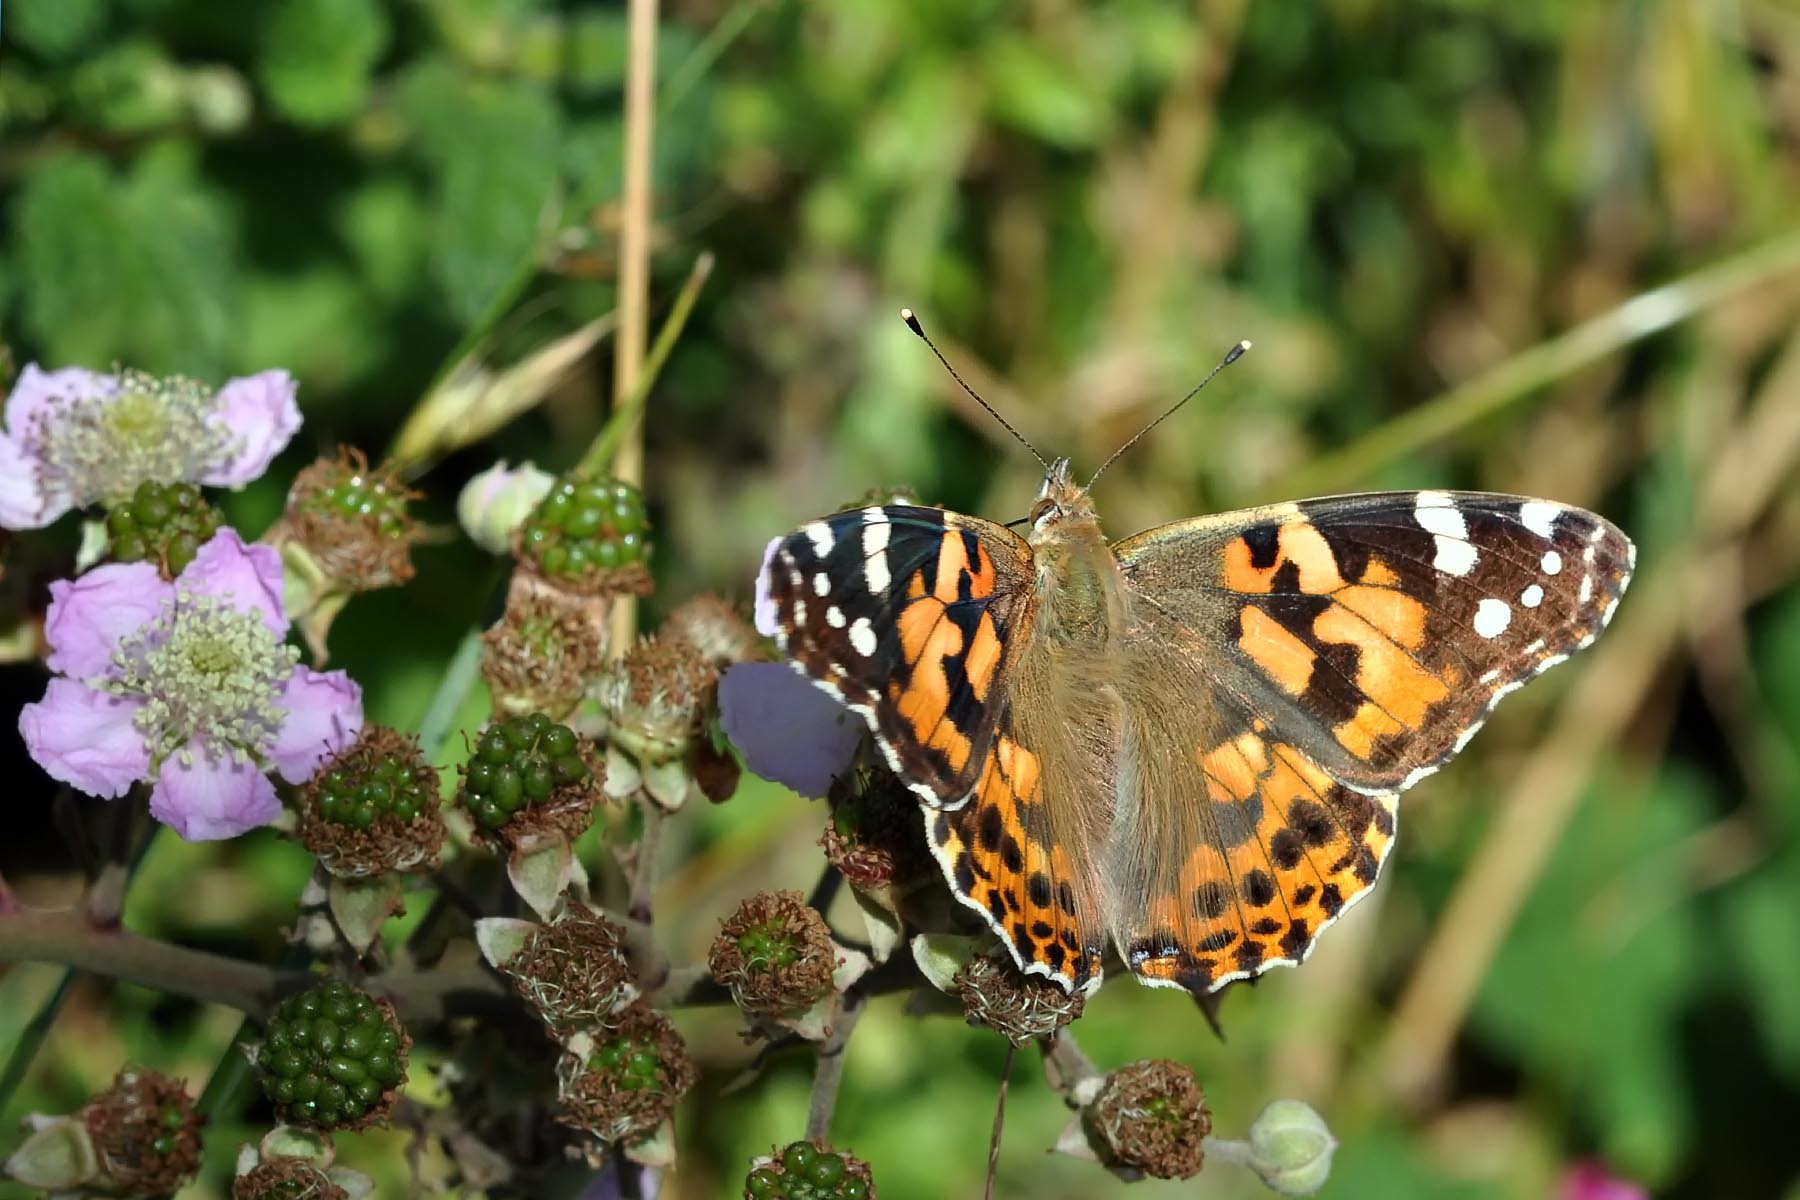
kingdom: Animalia
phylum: Arthropoda
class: Insecta
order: Lepidoptera
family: Nymphalidae
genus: Vanessa
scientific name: Vanessa cardui
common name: Painted lady
